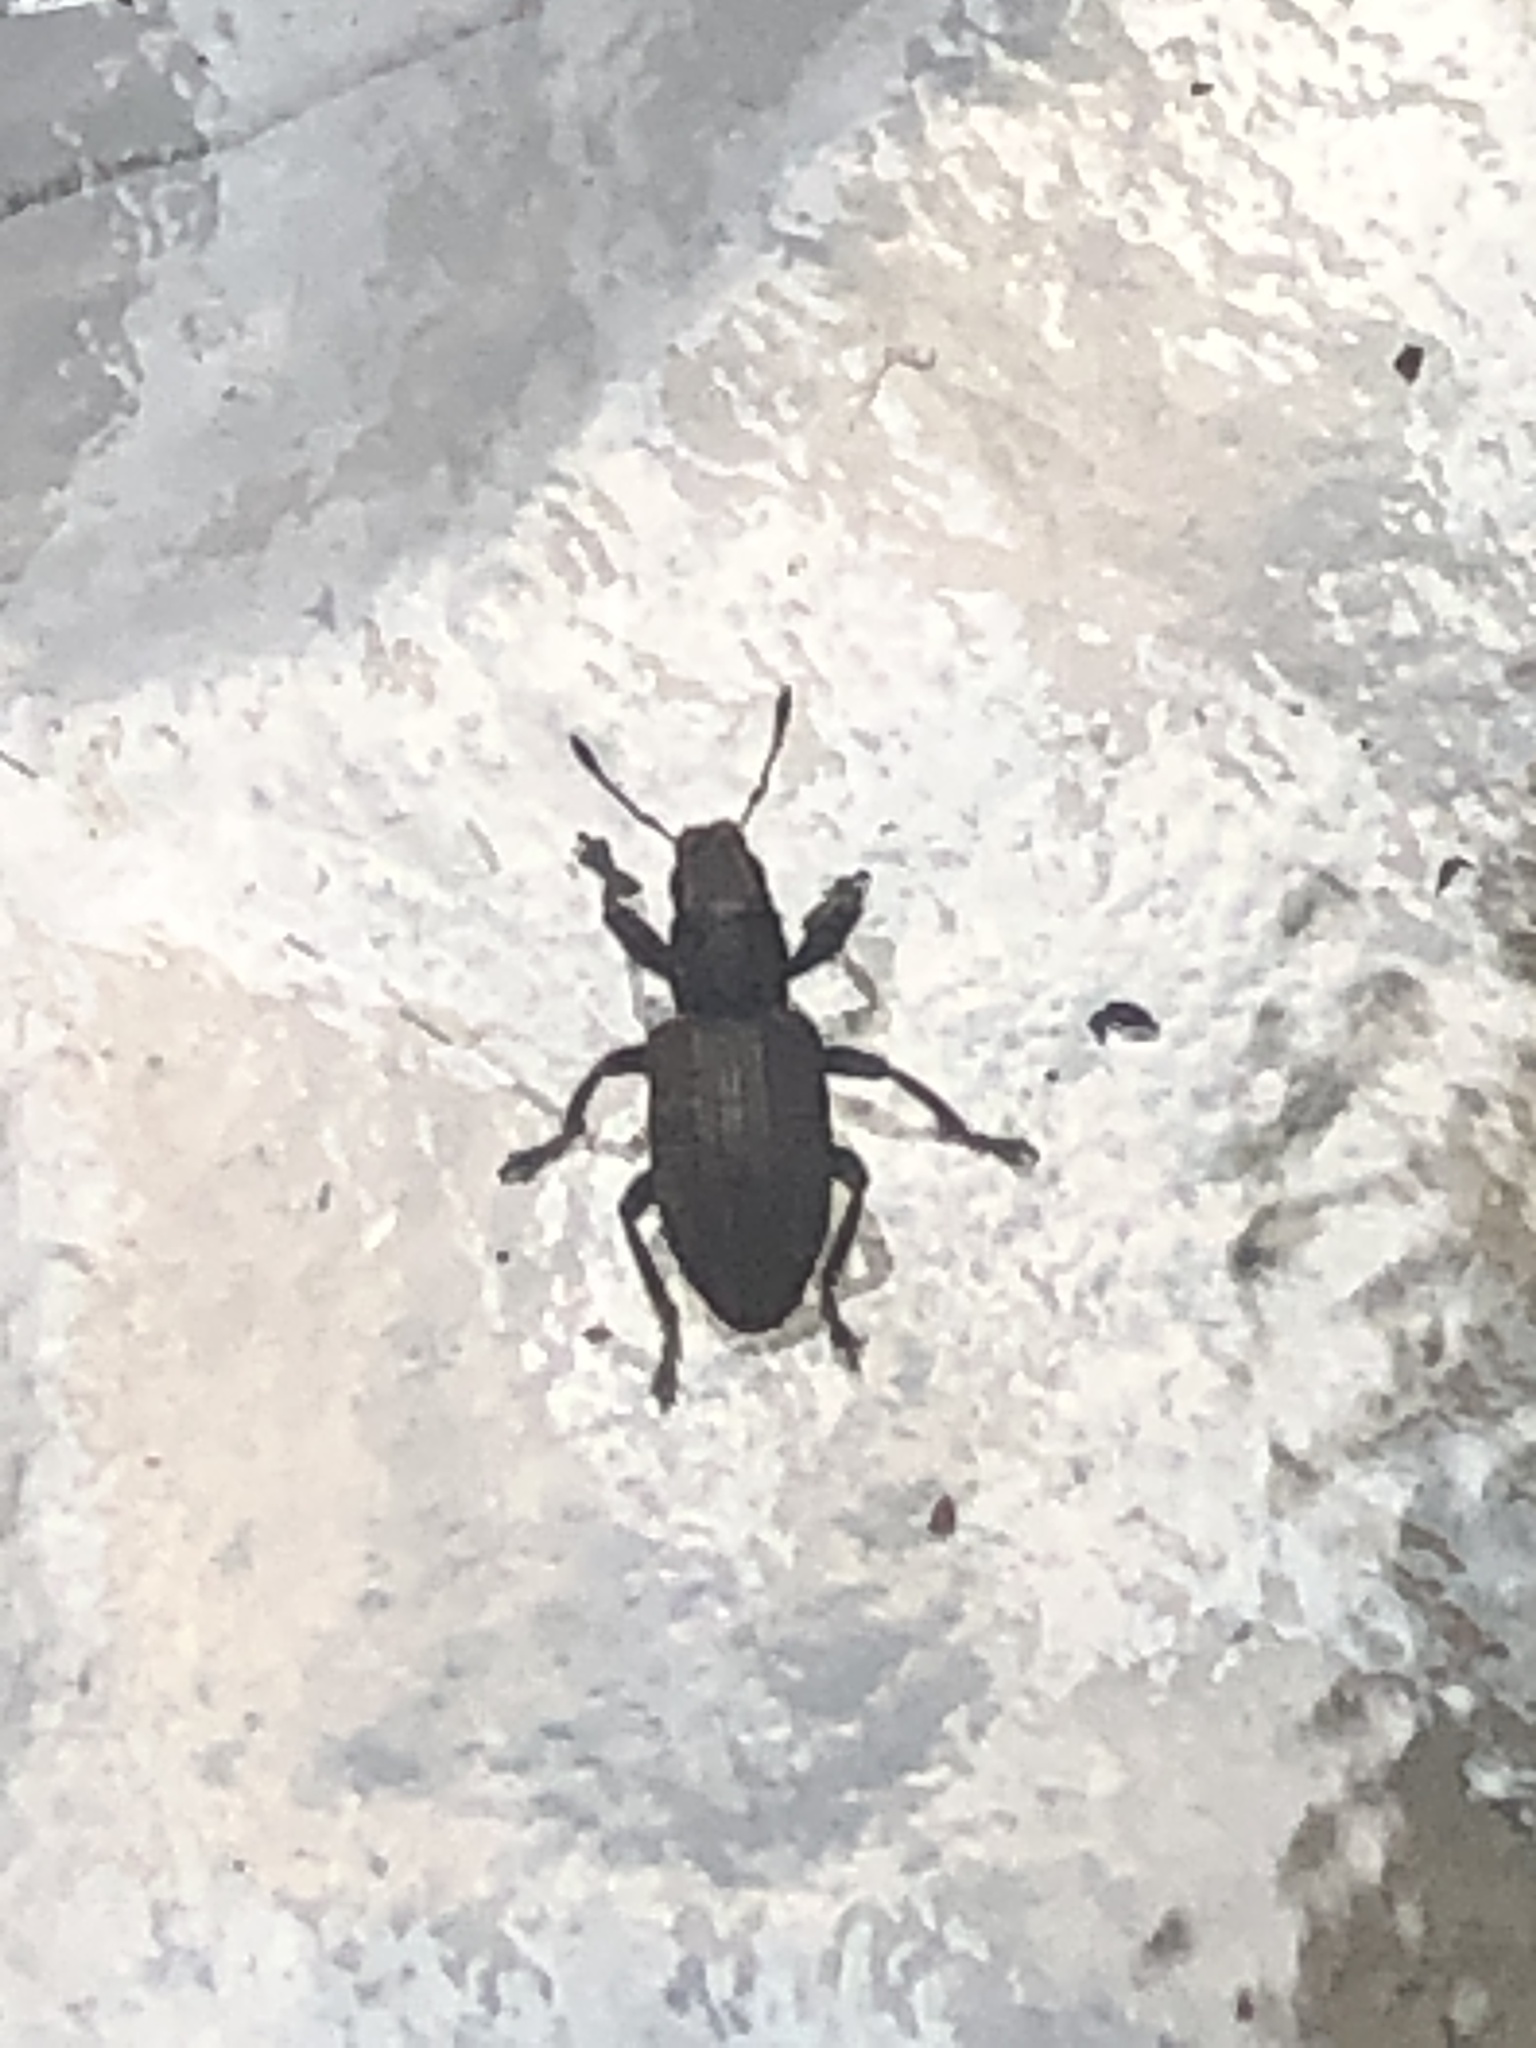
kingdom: Animalia
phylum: Arthropoda
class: Insecta
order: Coleoptera
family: Curculionidae
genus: Sitona
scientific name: Sitona obsoletus
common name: Weevil
